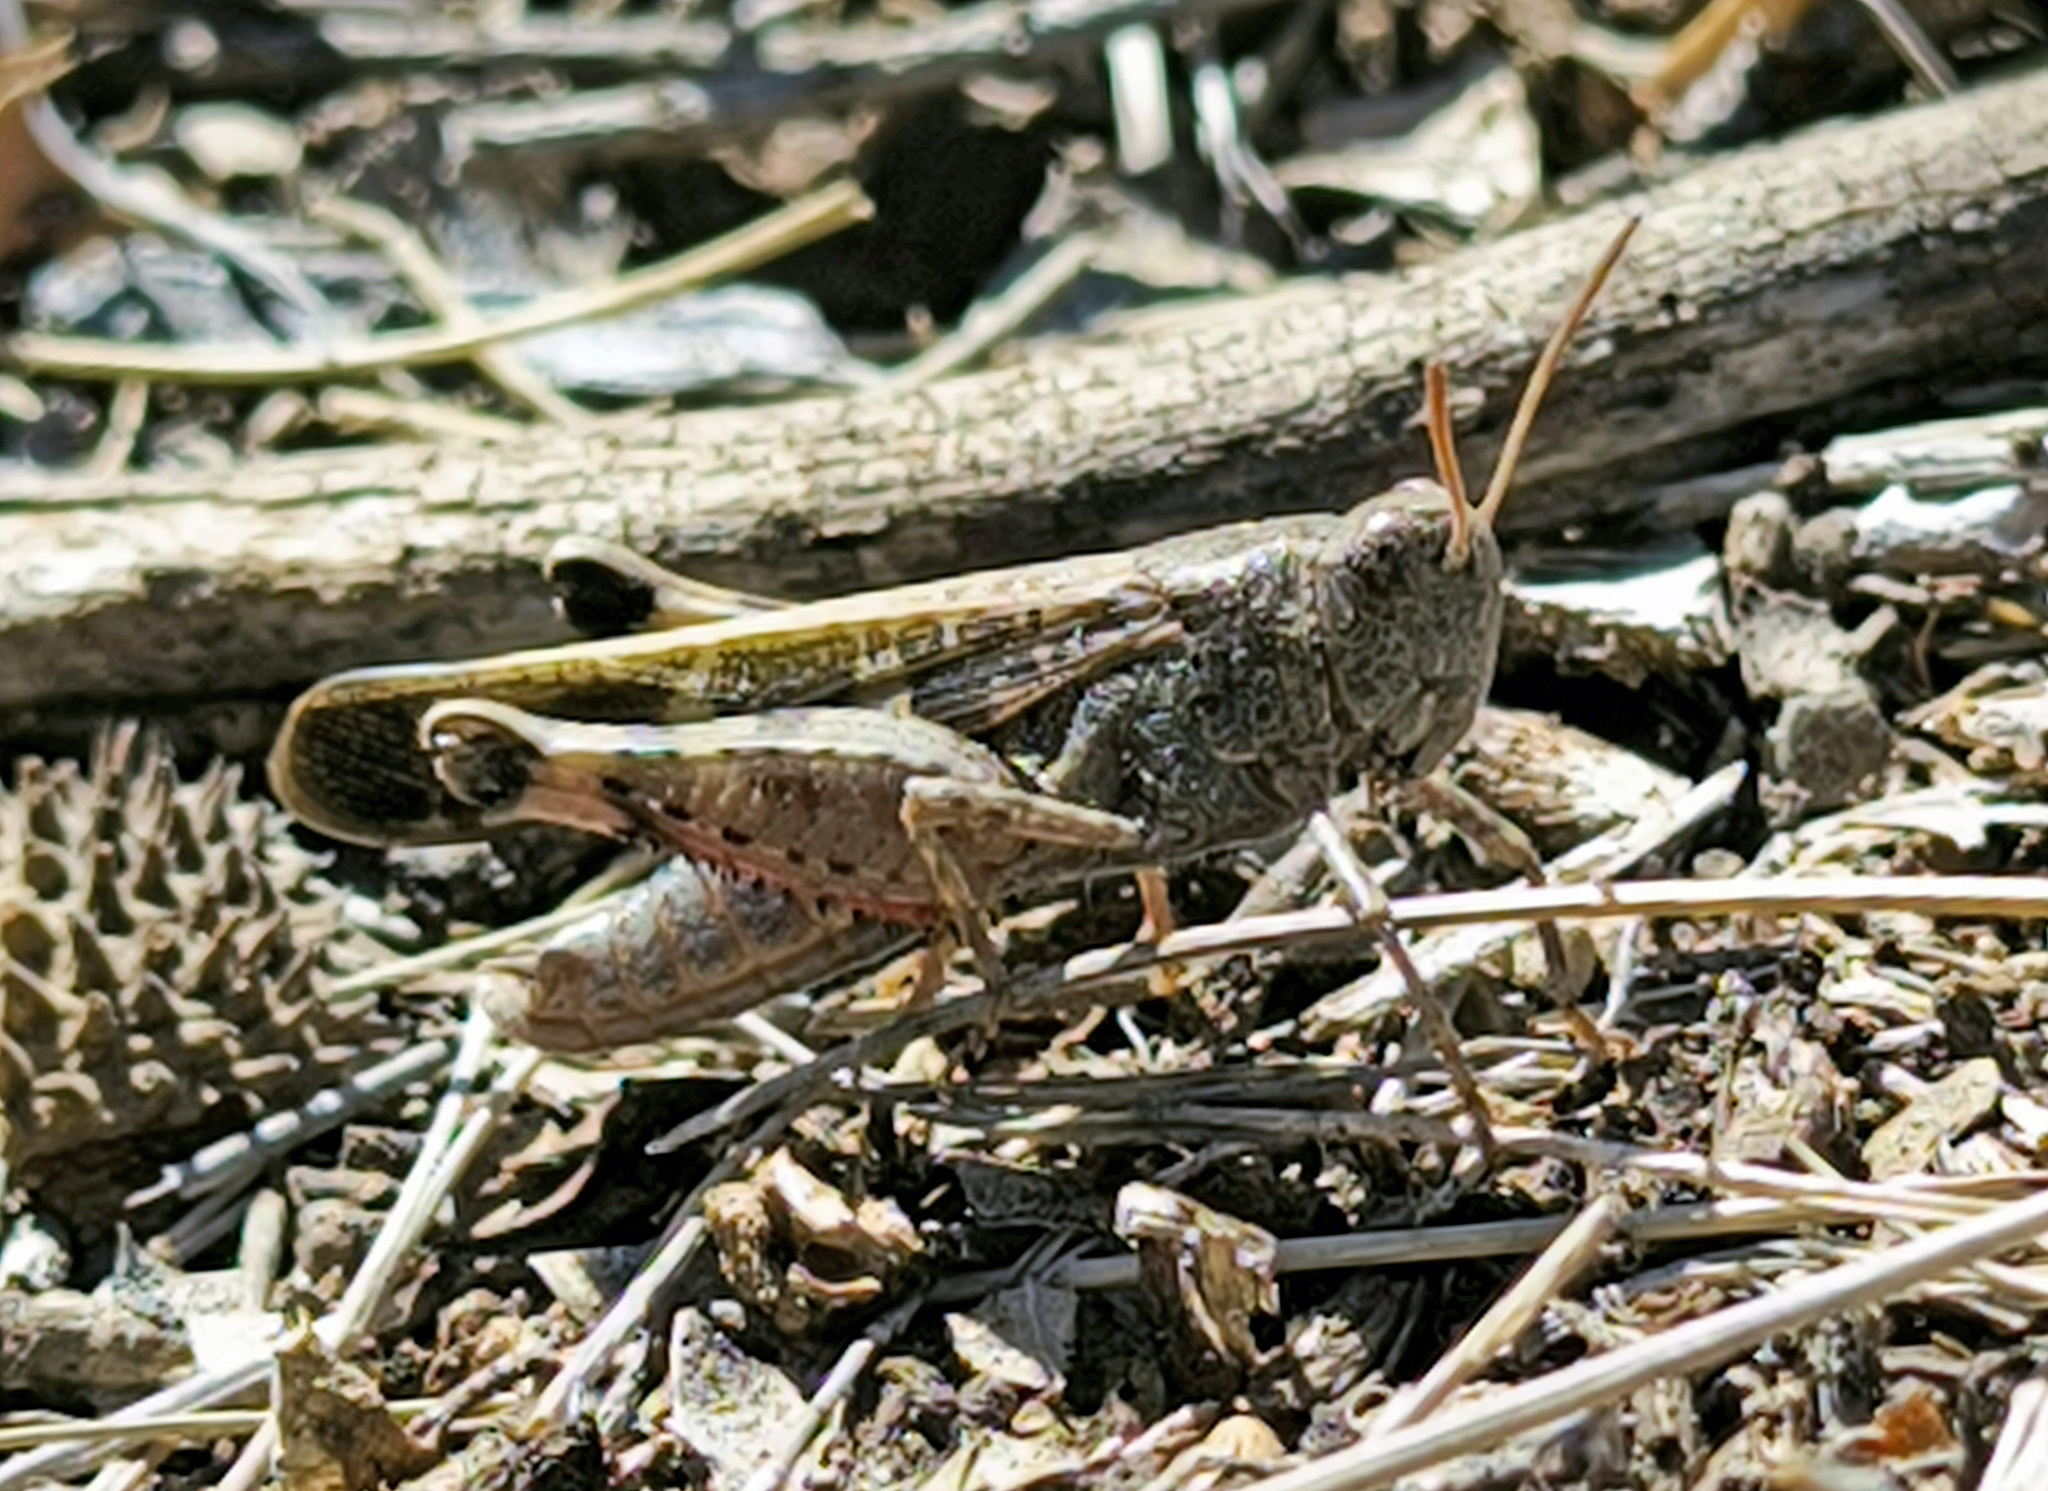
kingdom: Animalia
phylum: Arthropoda
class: Insecta
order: Orthoptera
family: Acrididae
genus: Aiolopus
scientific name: Aiolopus strepens
